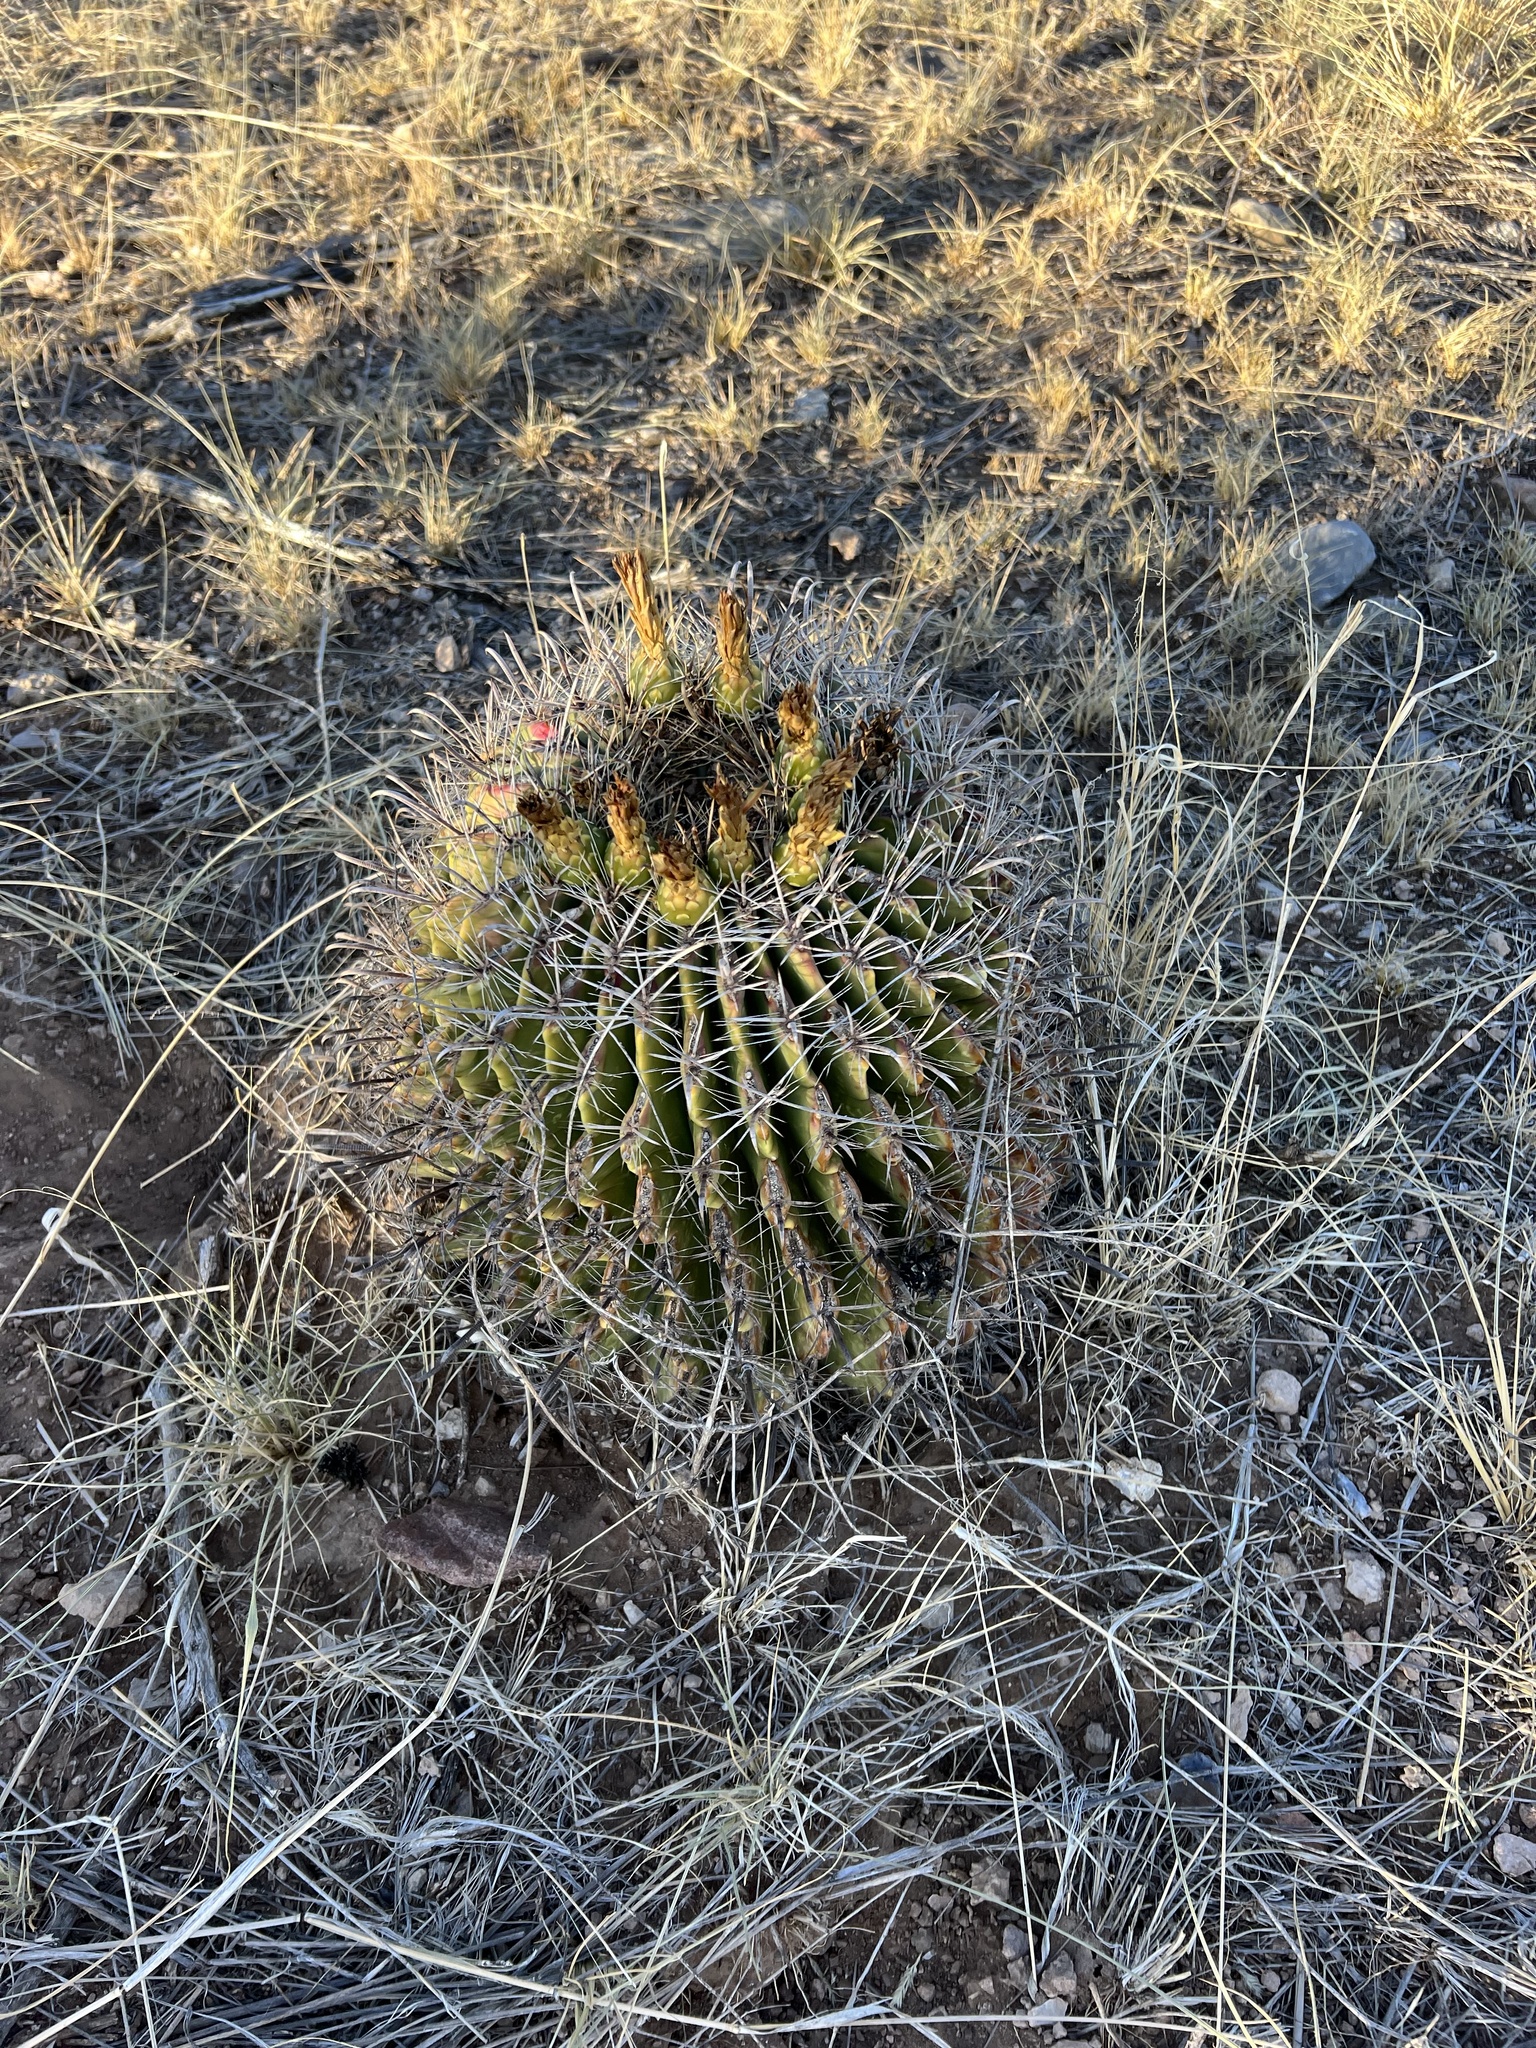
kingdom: Plantae
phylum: Tracheophyta
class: Magnoliopsida
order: Caryophyllales
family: Cactaceae
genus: Ferocactus
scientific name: Ferocactus wislizeni
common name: Candy barrel cactus
